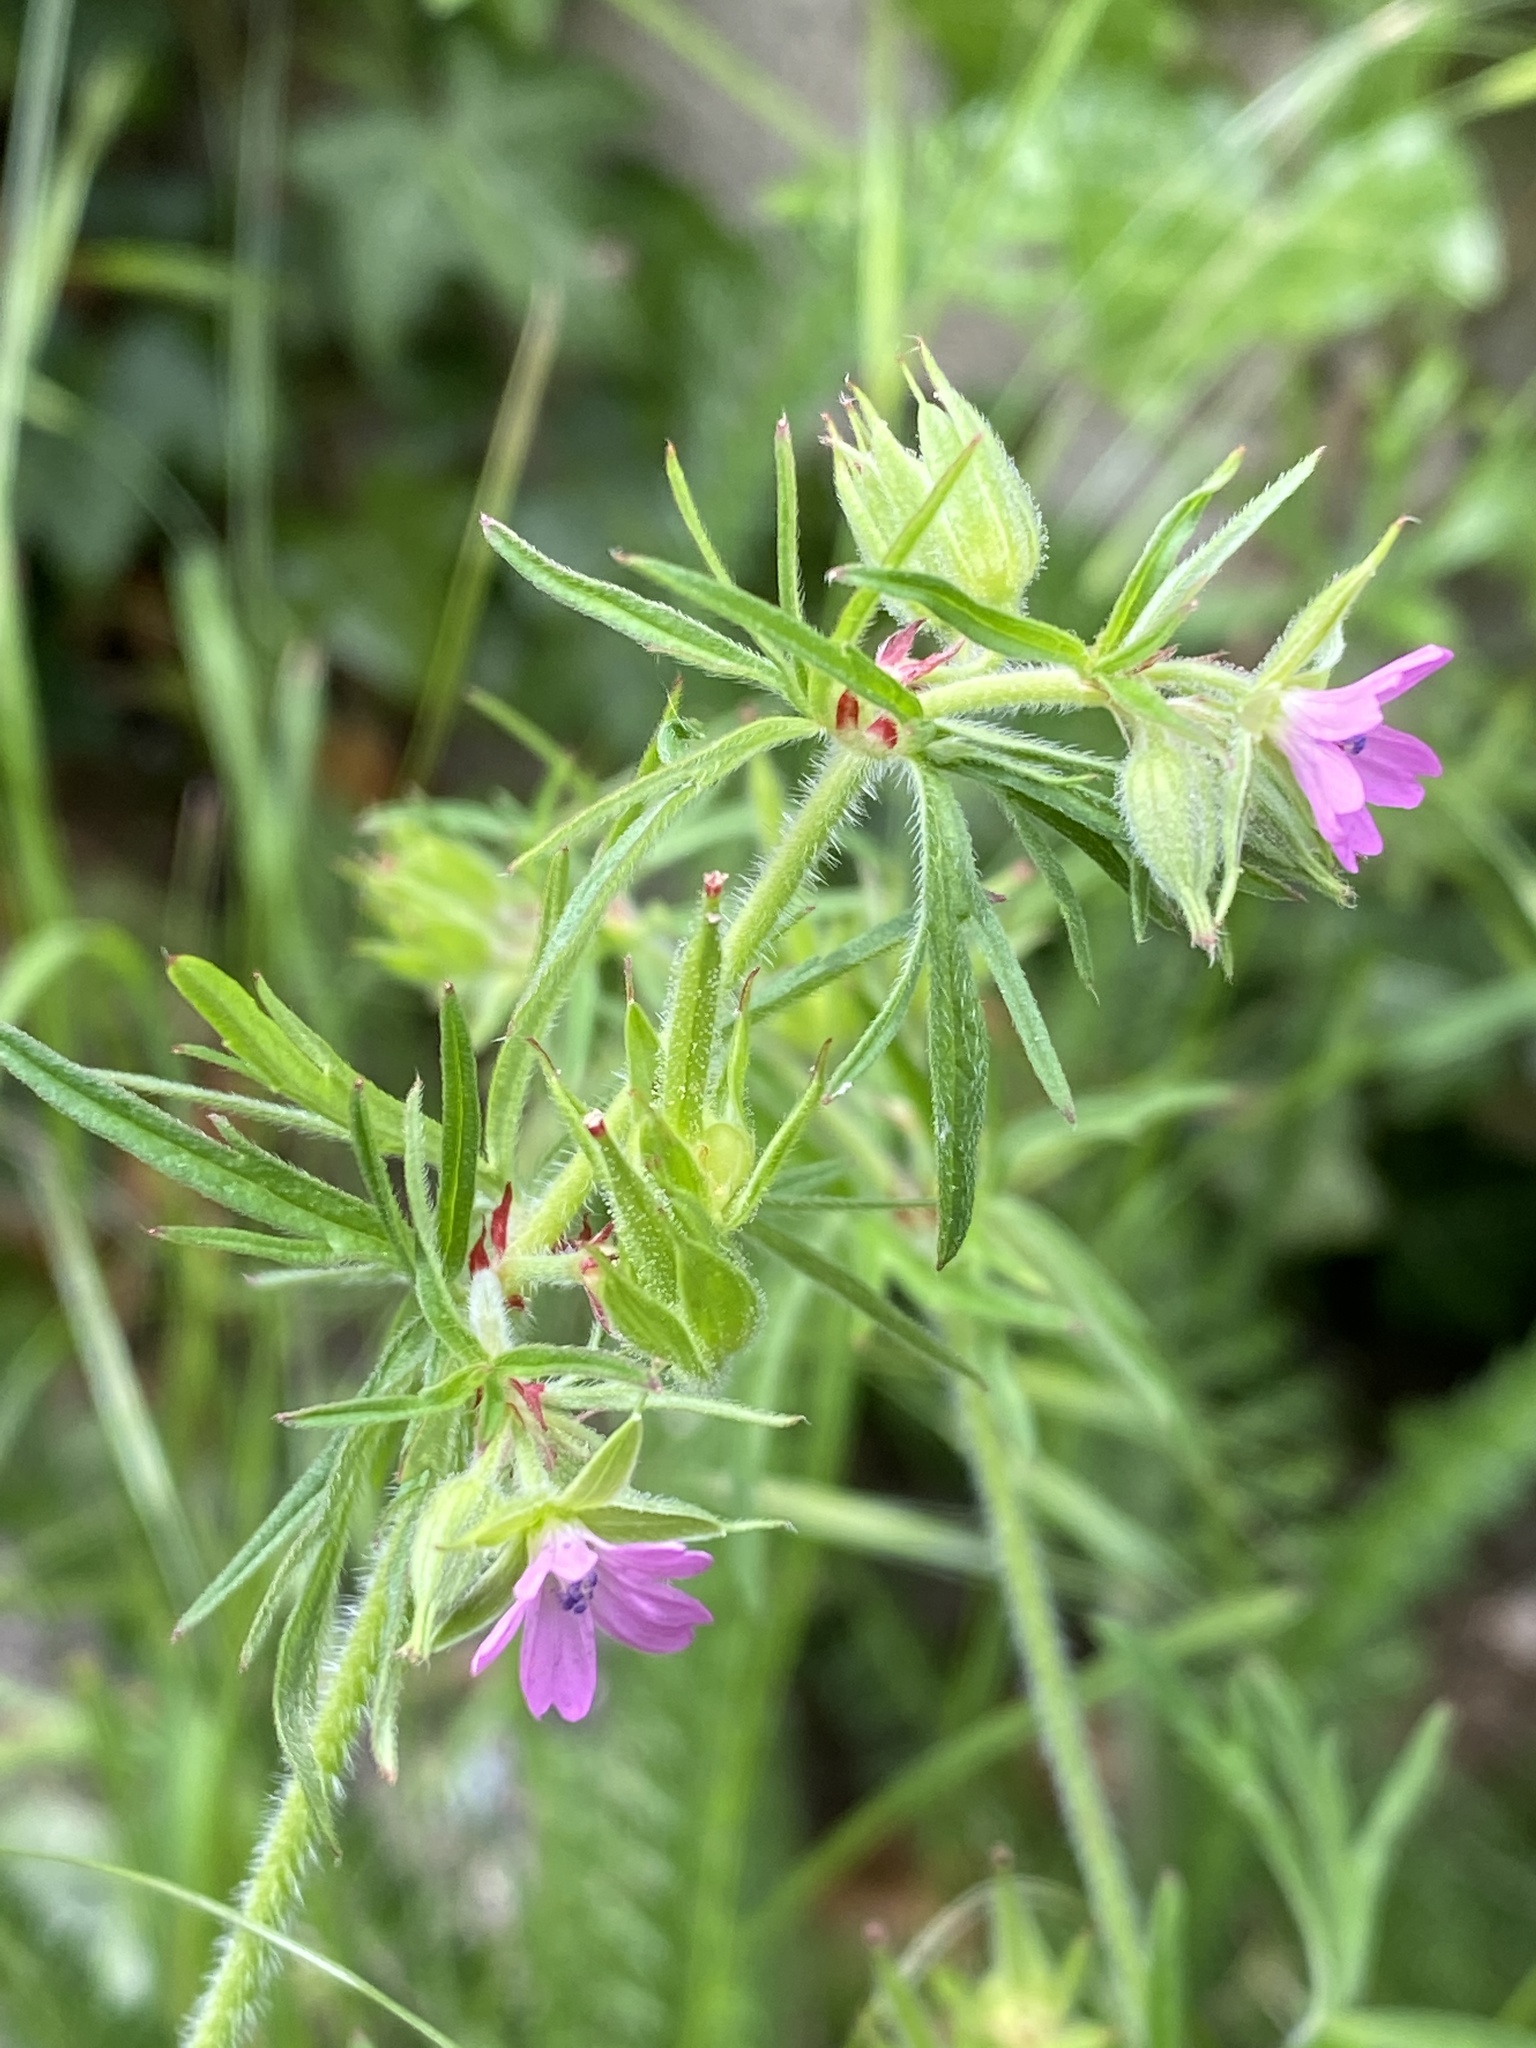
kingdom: Plantae
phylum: Tracheophyta
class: Magnoliopsida
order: Geraniales
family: Geraniaceae
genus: Geranium
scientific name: Geranium dissectum
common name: Cut-leaved crane's-bill
